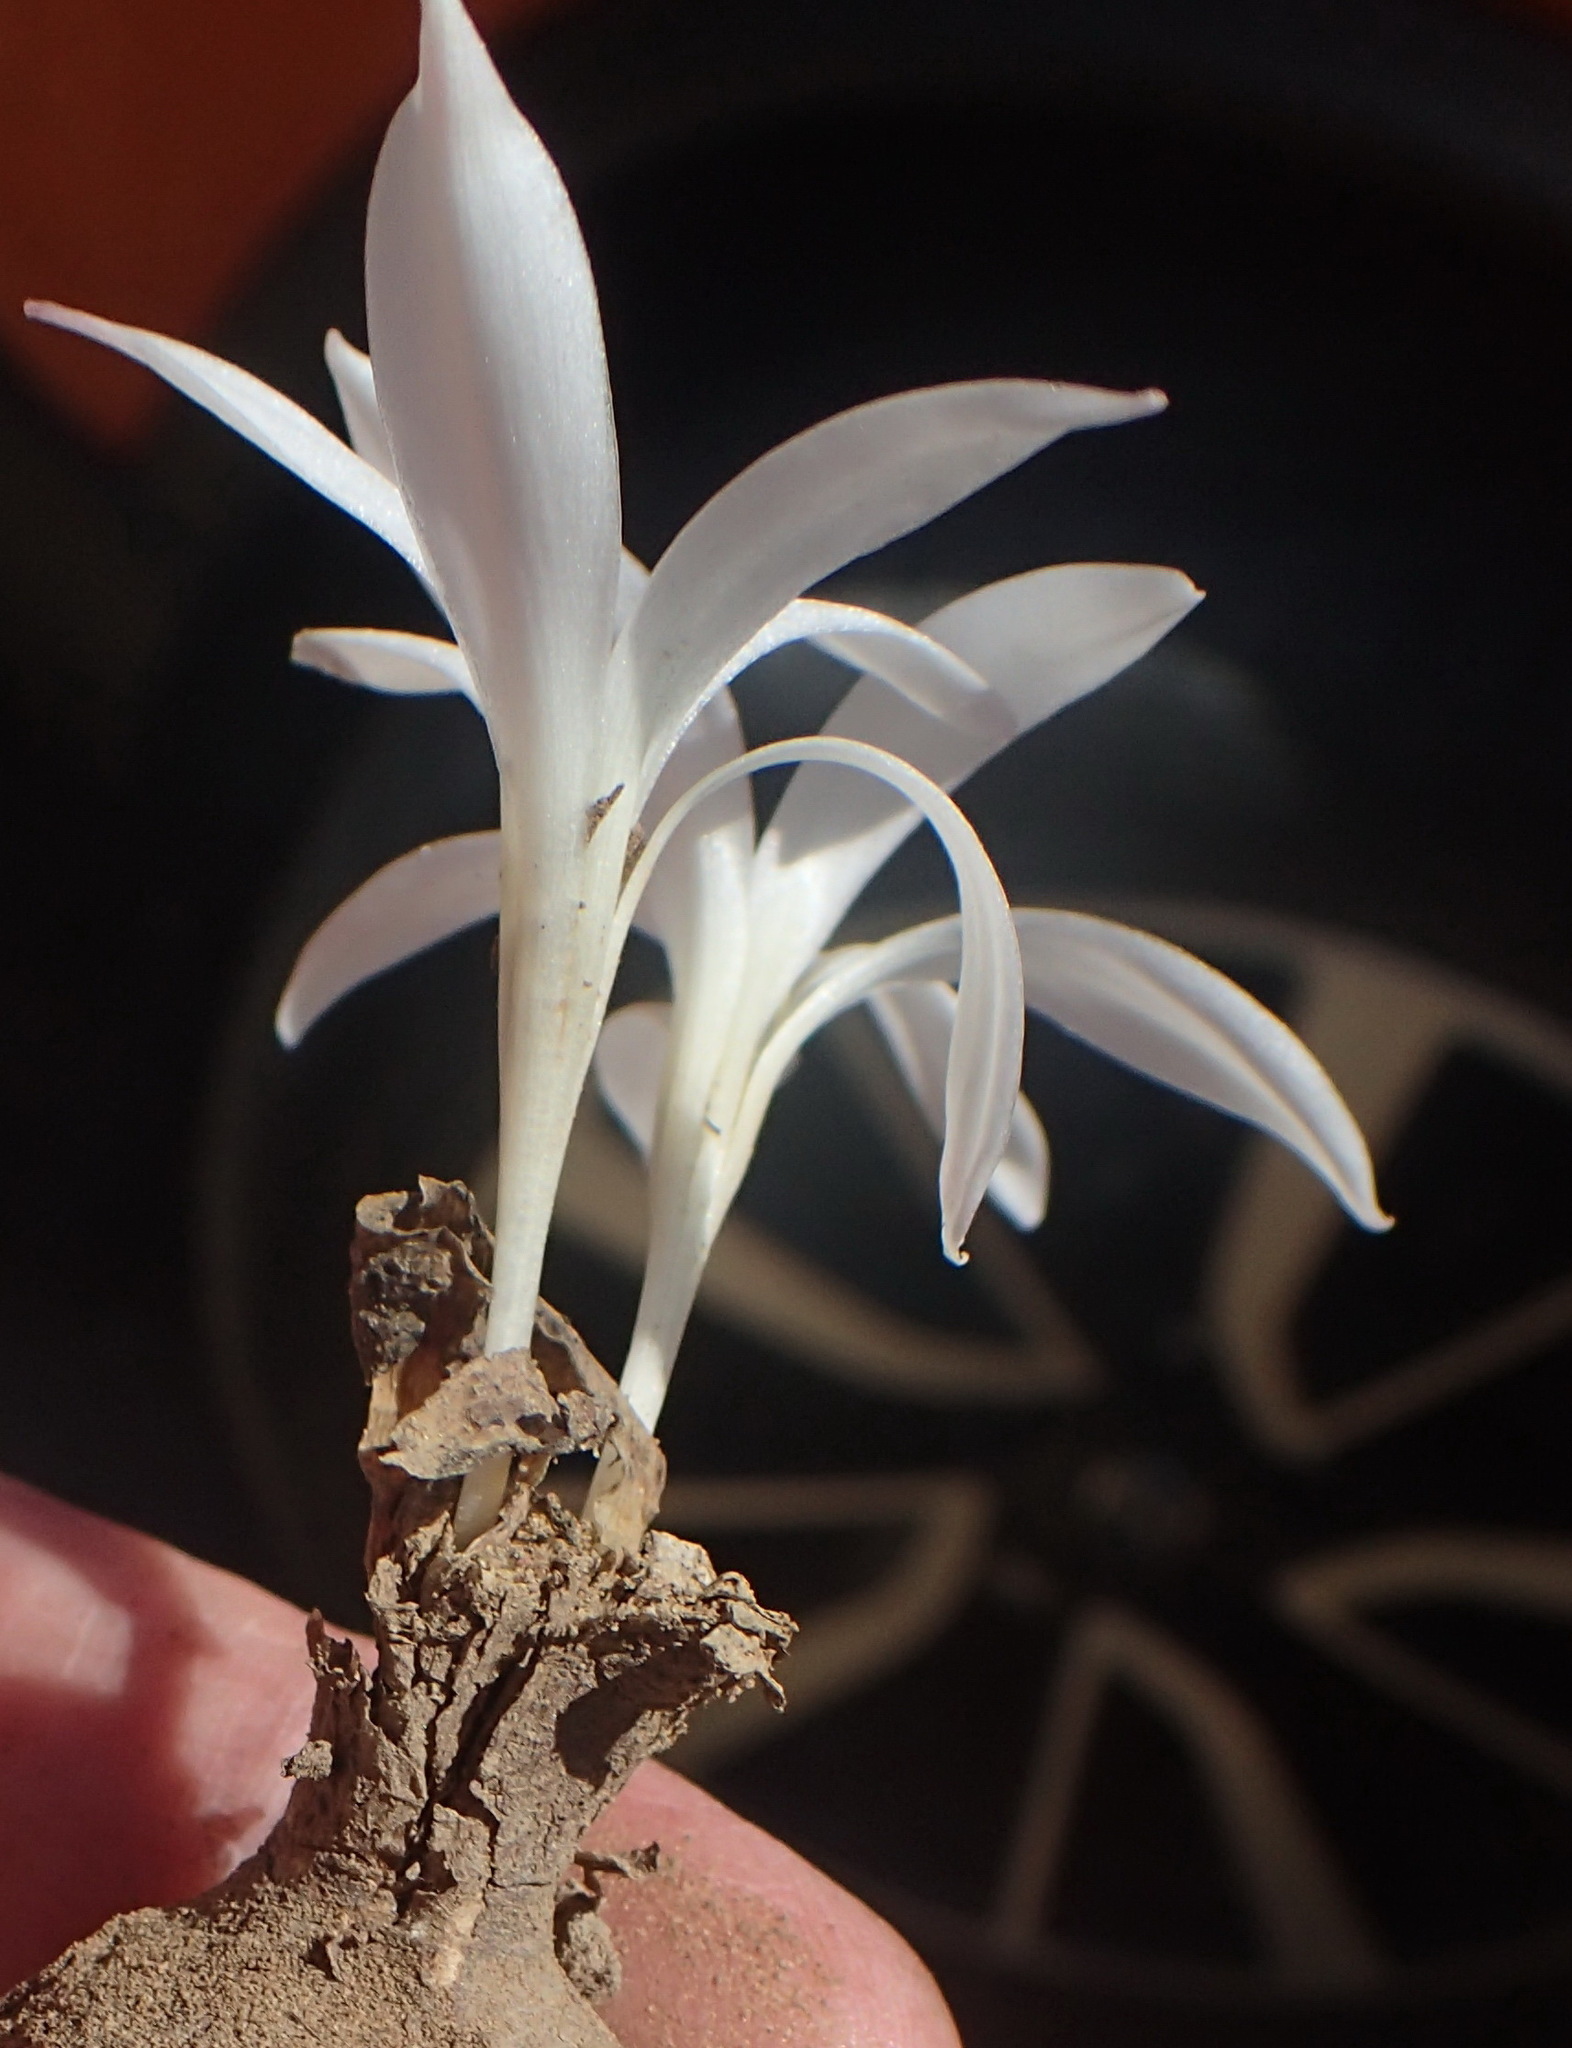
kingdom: Plantae
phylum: Tracheophyta
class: Liliopsida
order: Asparagales
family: Amaryllidaceae
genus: Apodolirion
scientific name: Apodolirion lanceolatum
